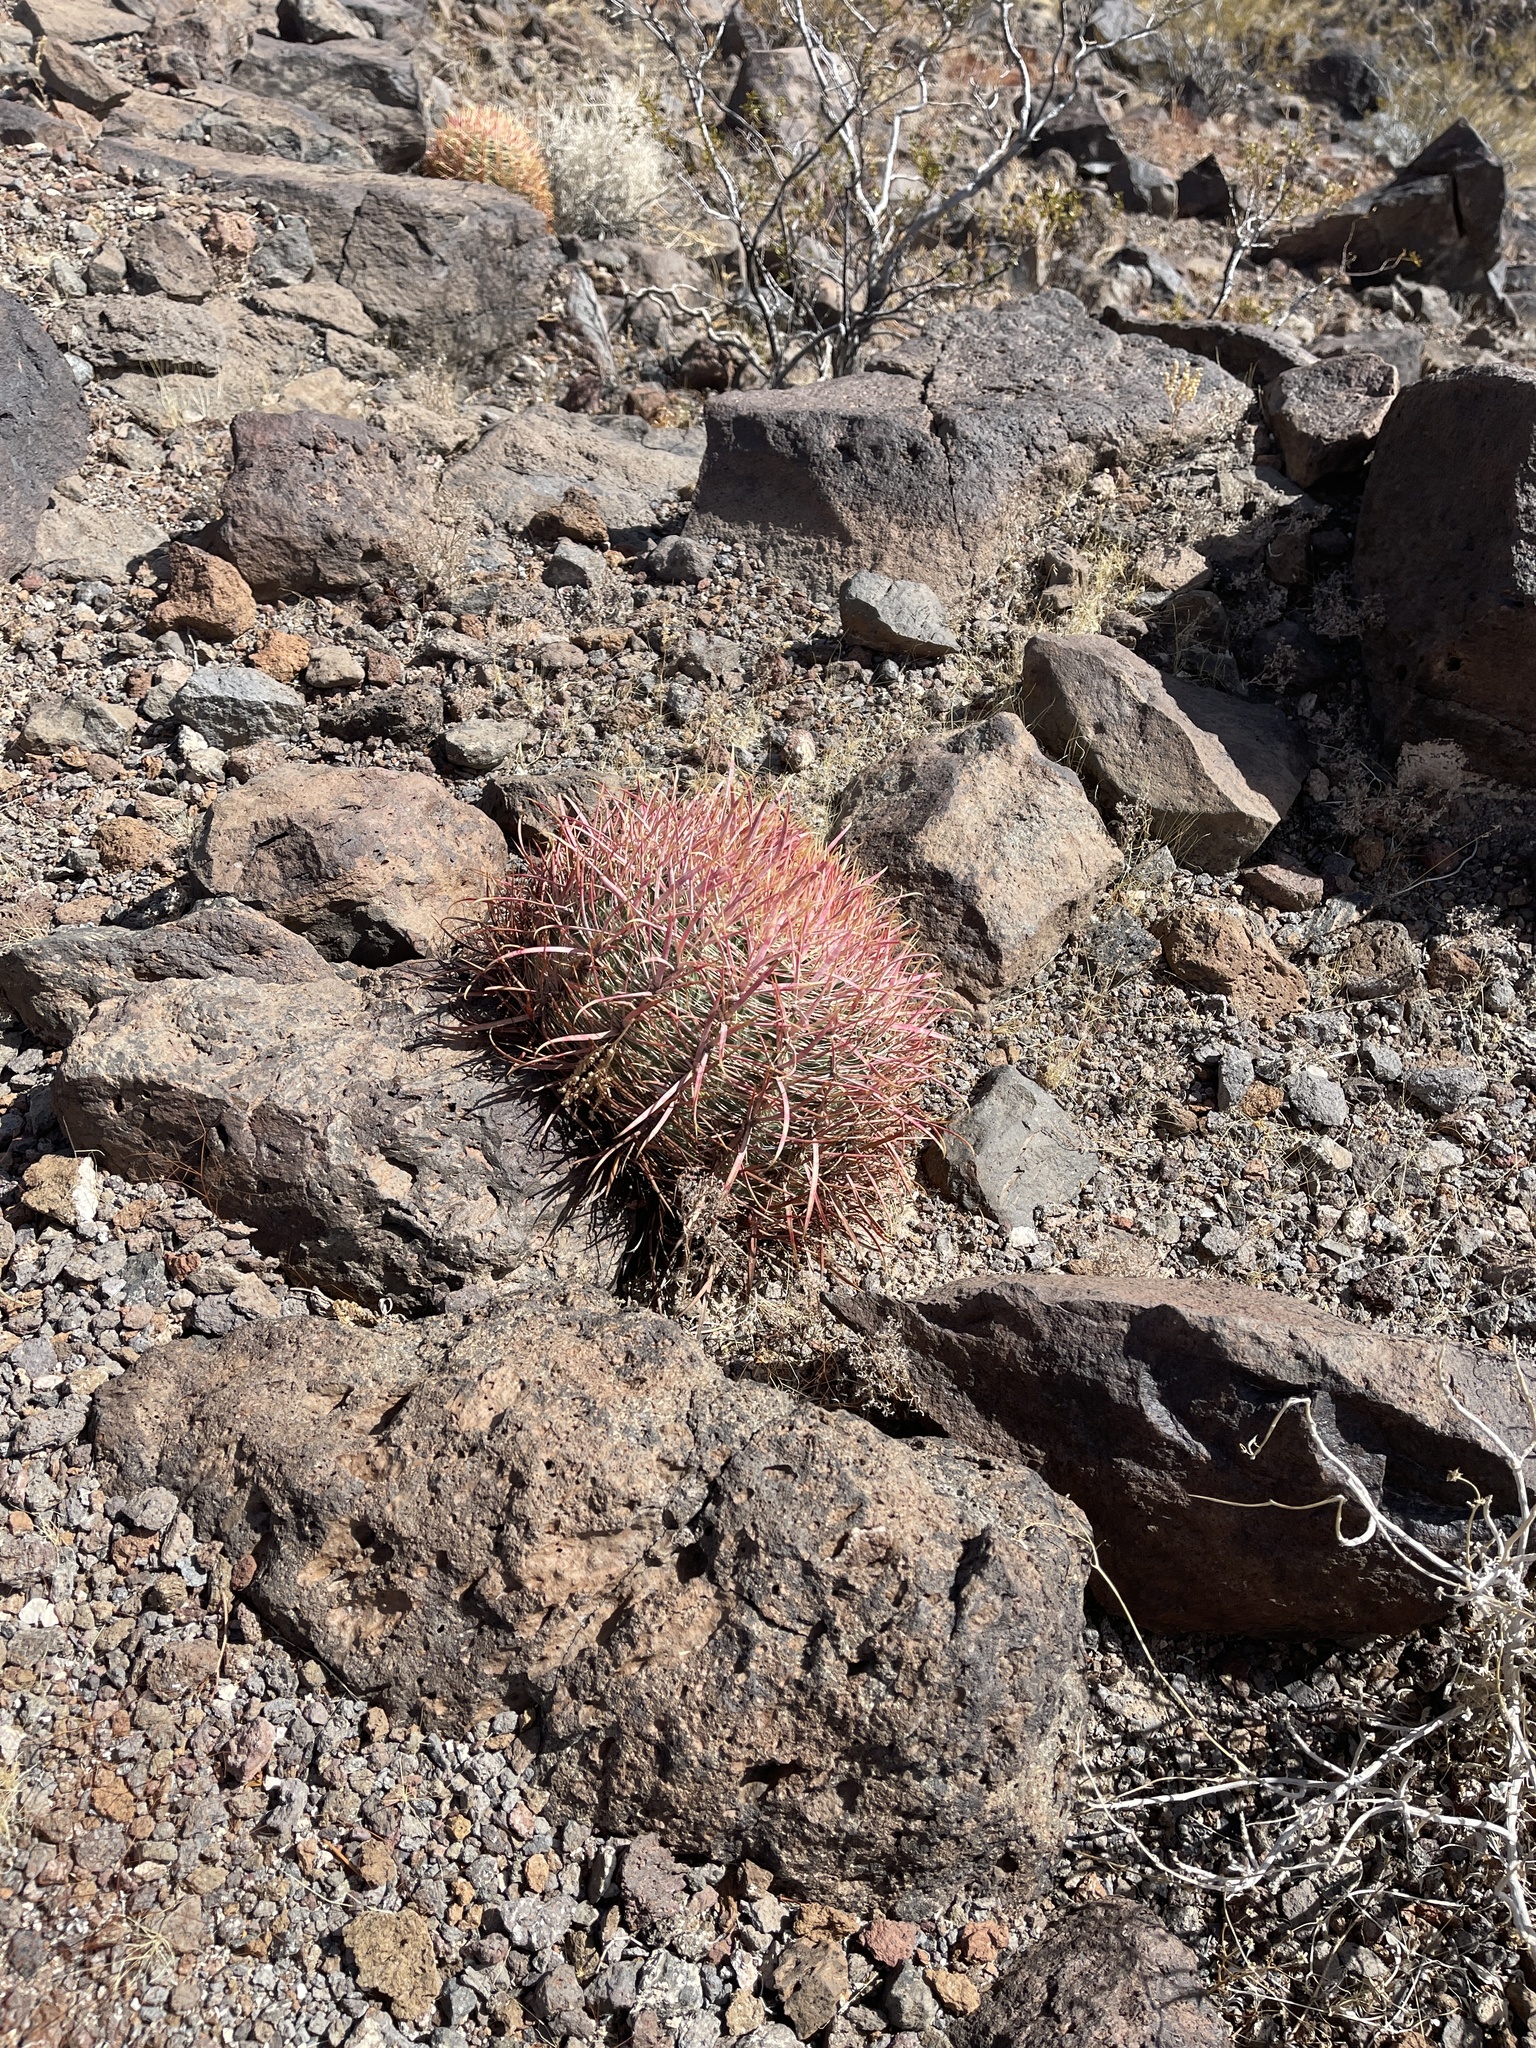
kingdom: Plantae
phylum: Tracheophyta
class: Magnoliopsida
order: Caryophyllales
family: Cactaceae
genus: Ferocactus
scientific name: Ferocactus cylindraceus
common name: California barrel cactus
